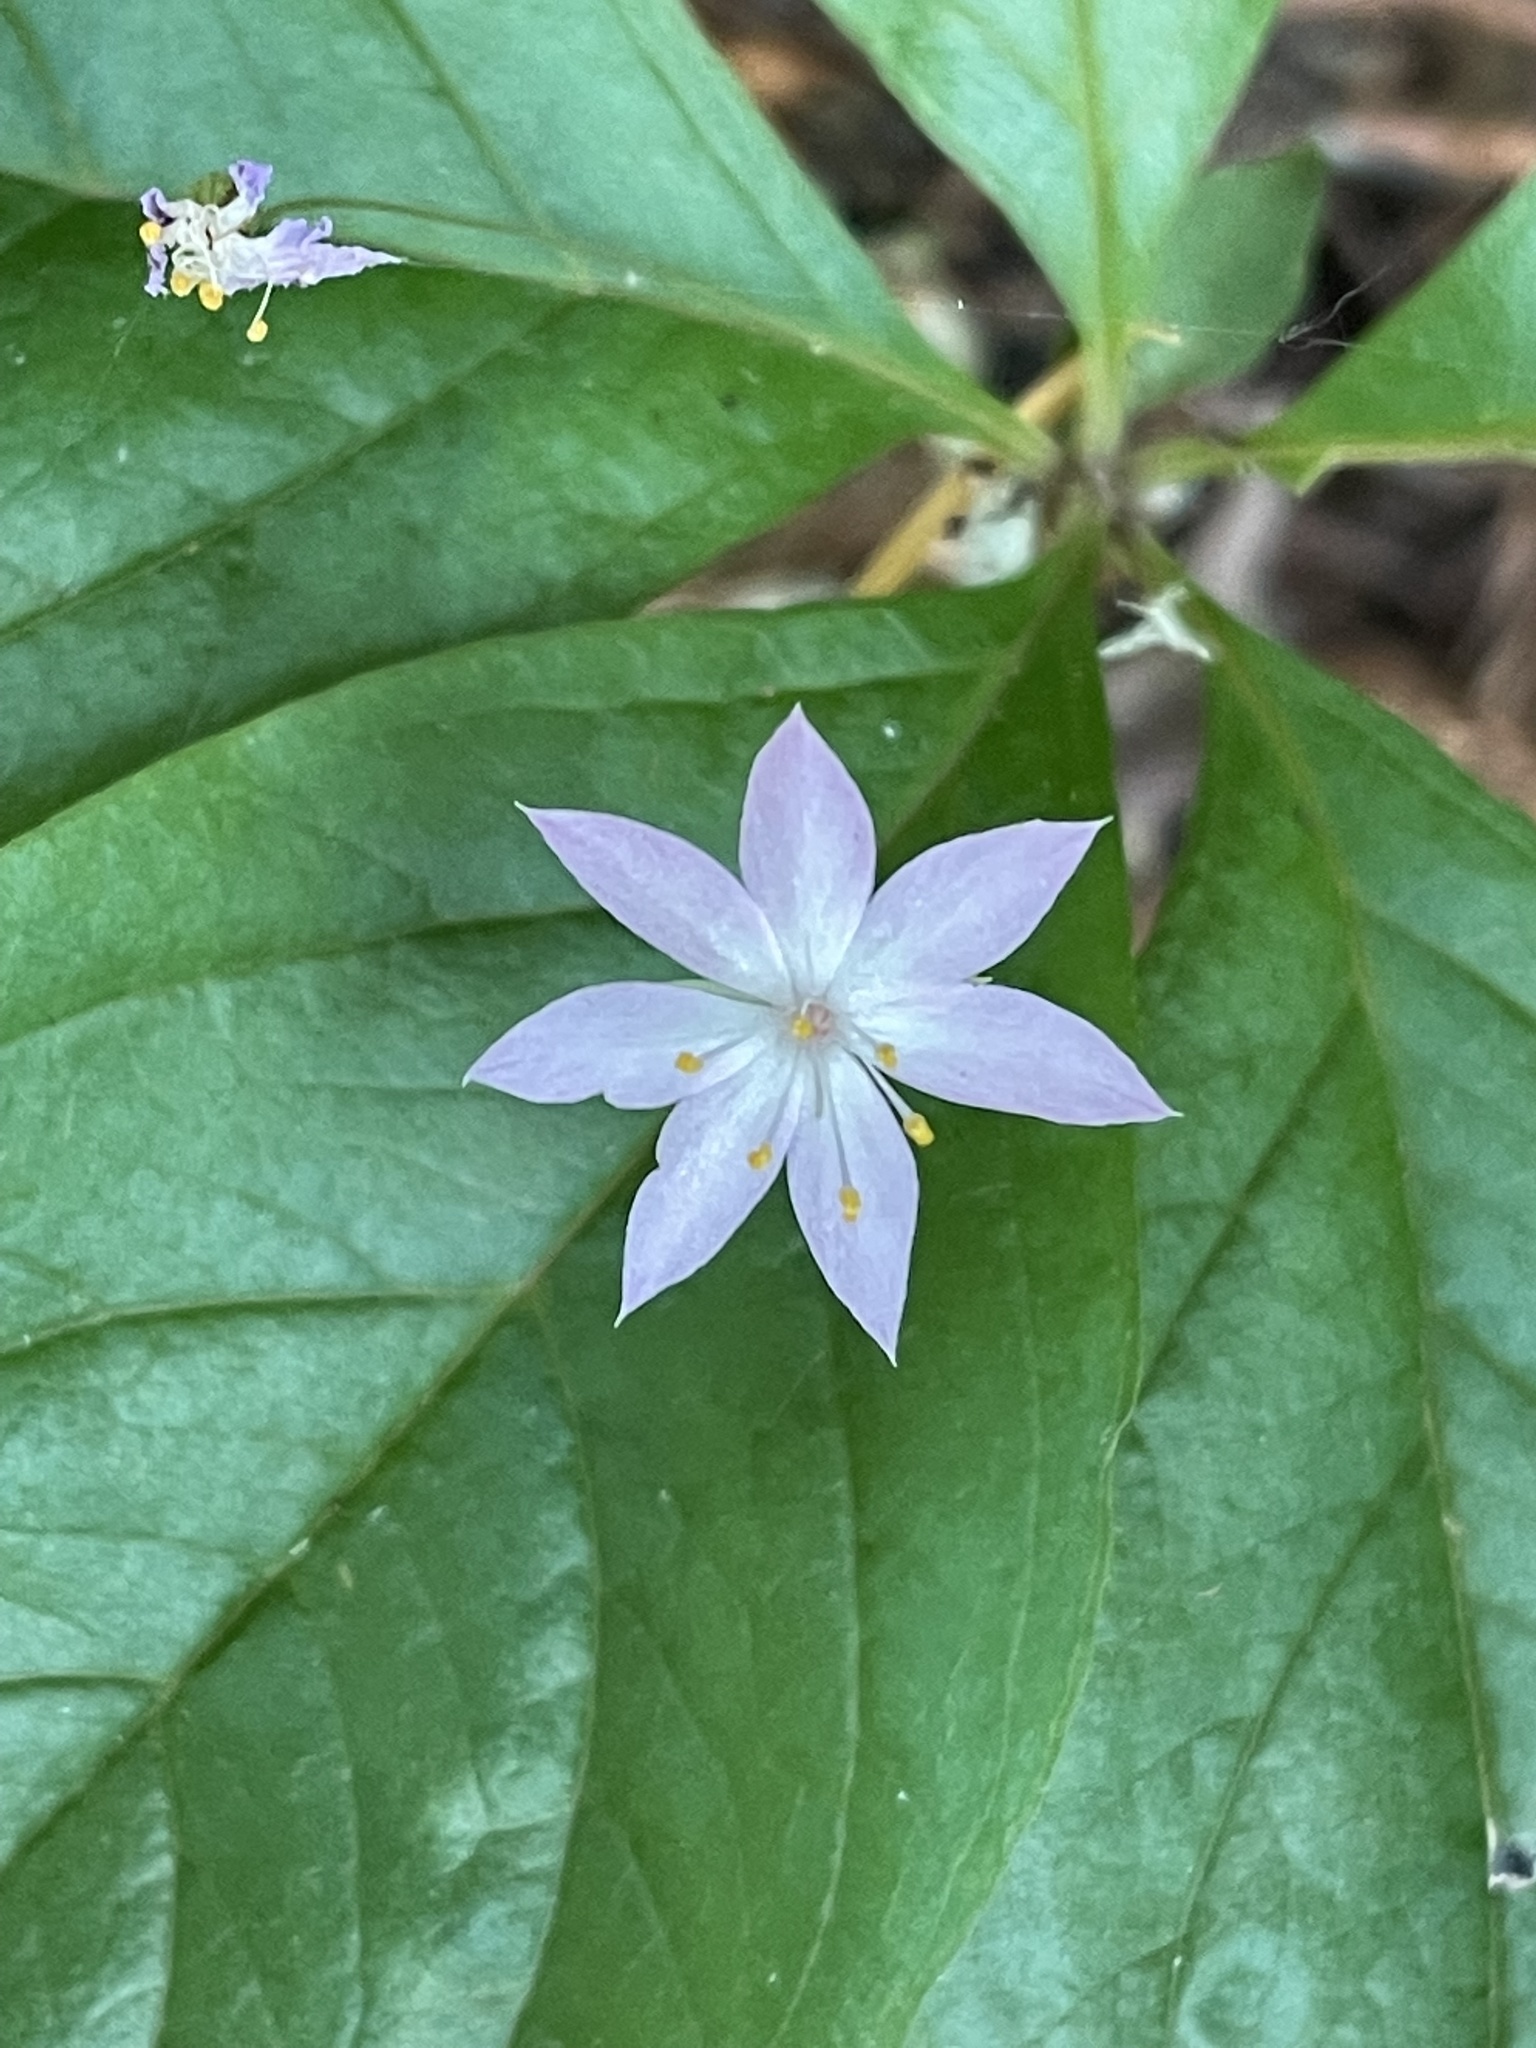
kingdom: Plantae
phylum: Tracheophyta
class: Magnoliopsida
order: Ericales
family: Primulaceae
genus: Lysimachia
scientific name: Lysimachia latifolia
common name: Pacific starflower
